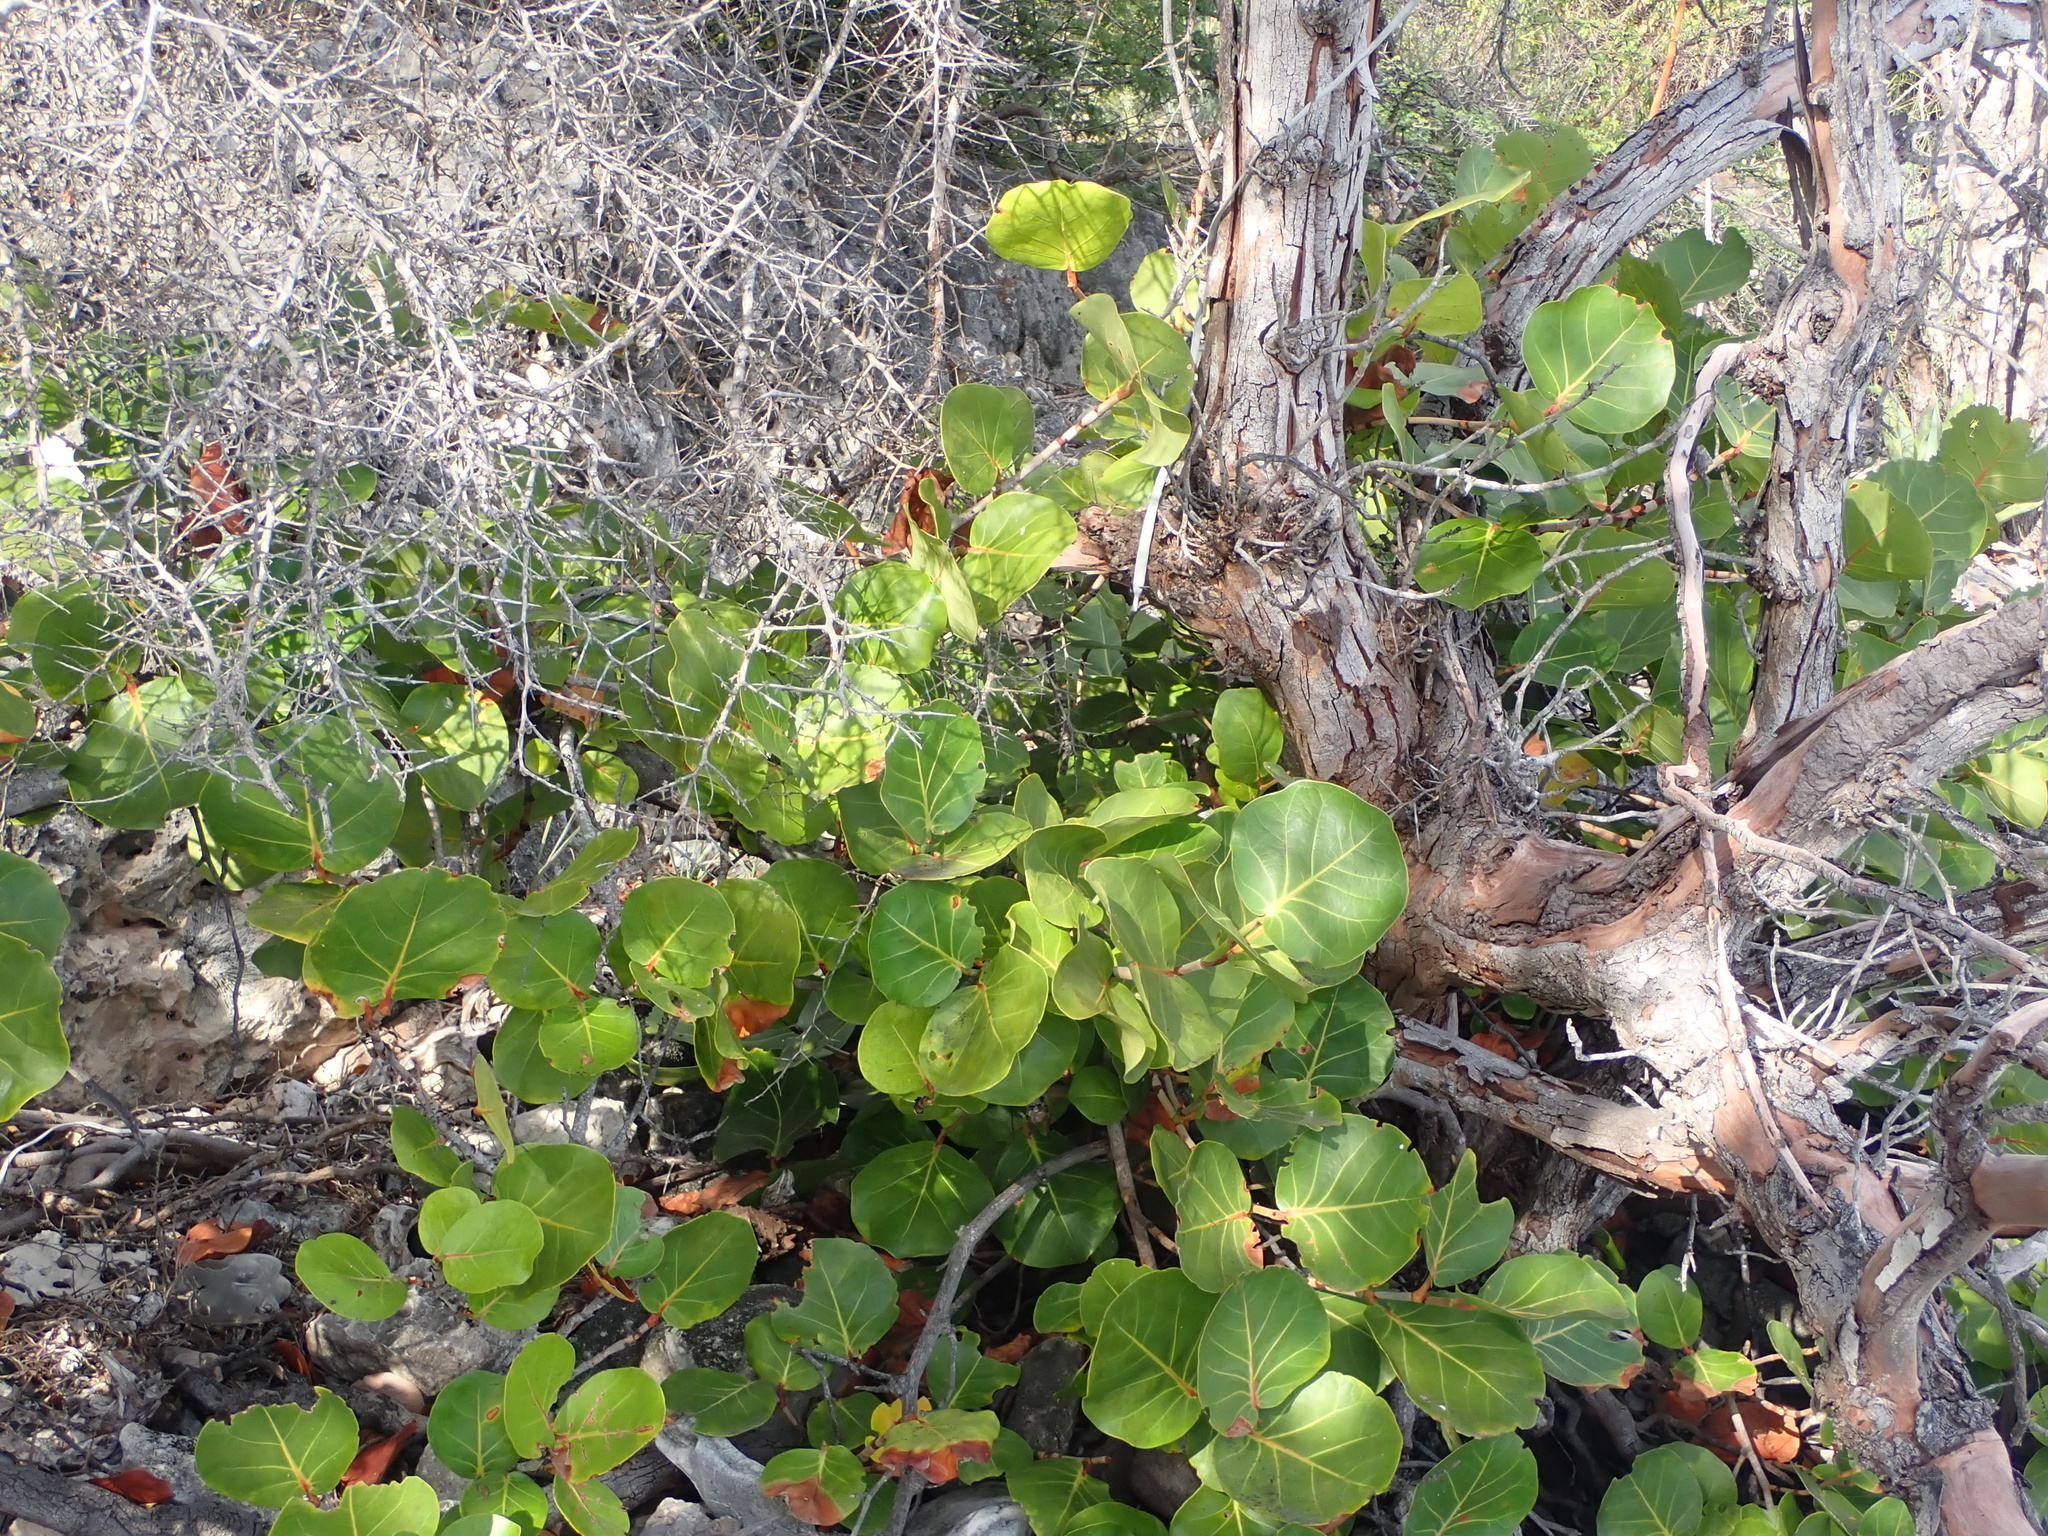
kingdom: Plantae
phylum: Tracheophyta
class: Magnoliopsida
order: Caryophyllales
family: Polygonaceae
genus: Coccoloba
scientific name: Coccoloba uvifera
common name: Seagrape
